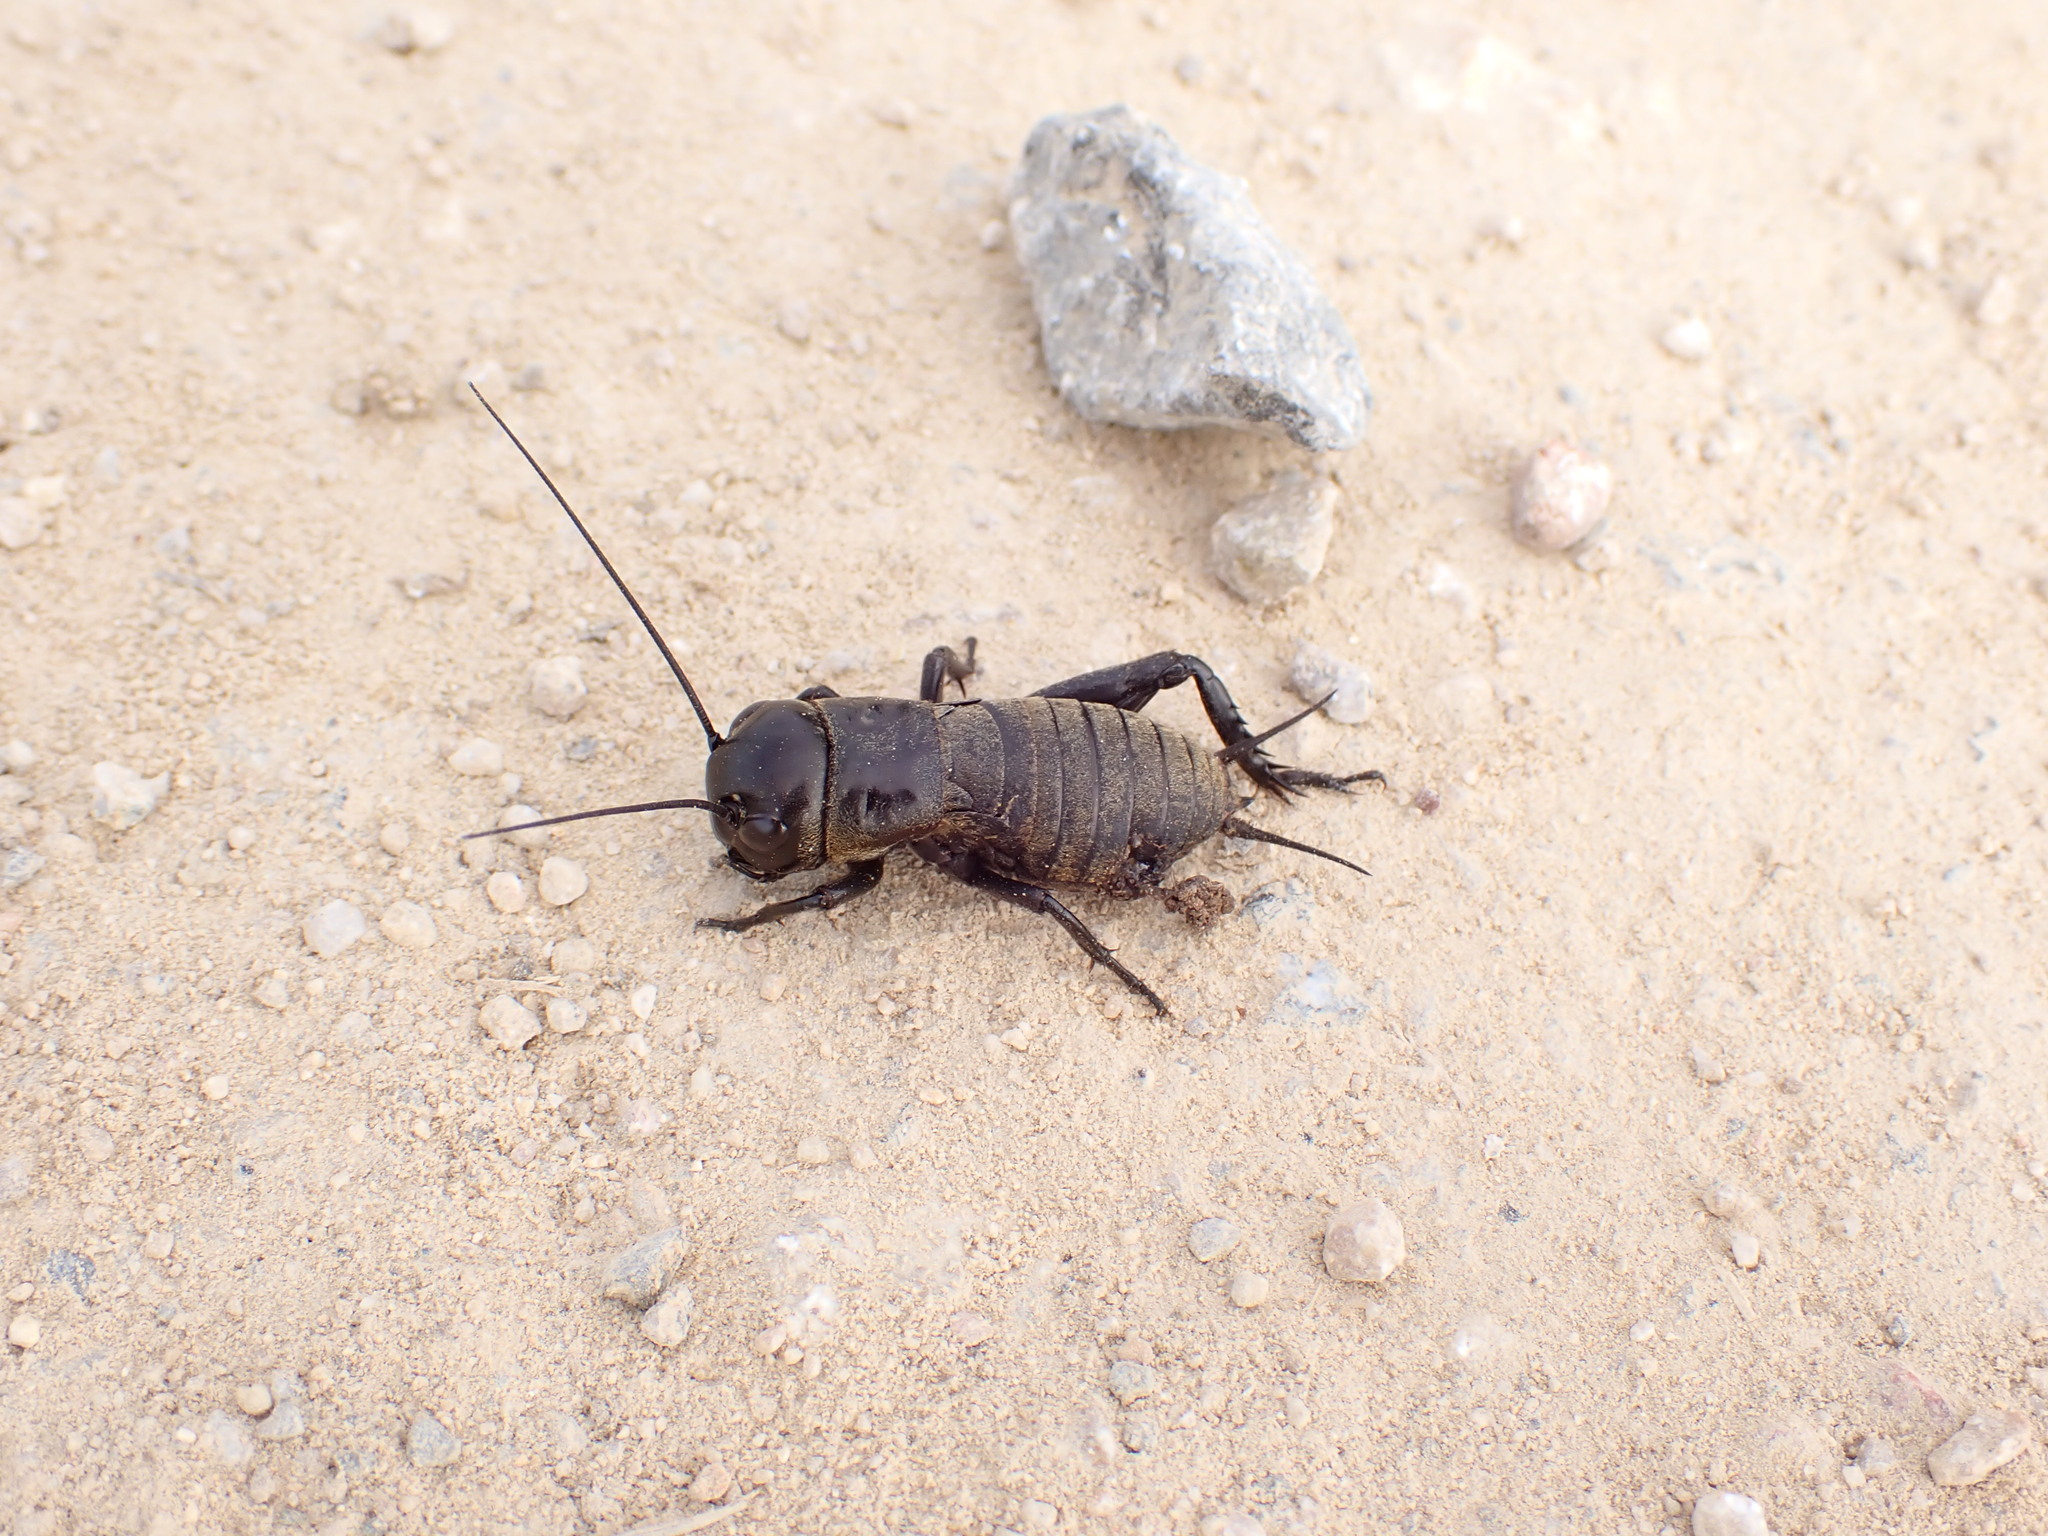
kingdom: Animalia
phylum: Arthropoda
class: Insecta
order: Orthoptera
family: Gryllidae
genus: Gryllus
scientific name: Gryllus campestris
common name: Field cricket
